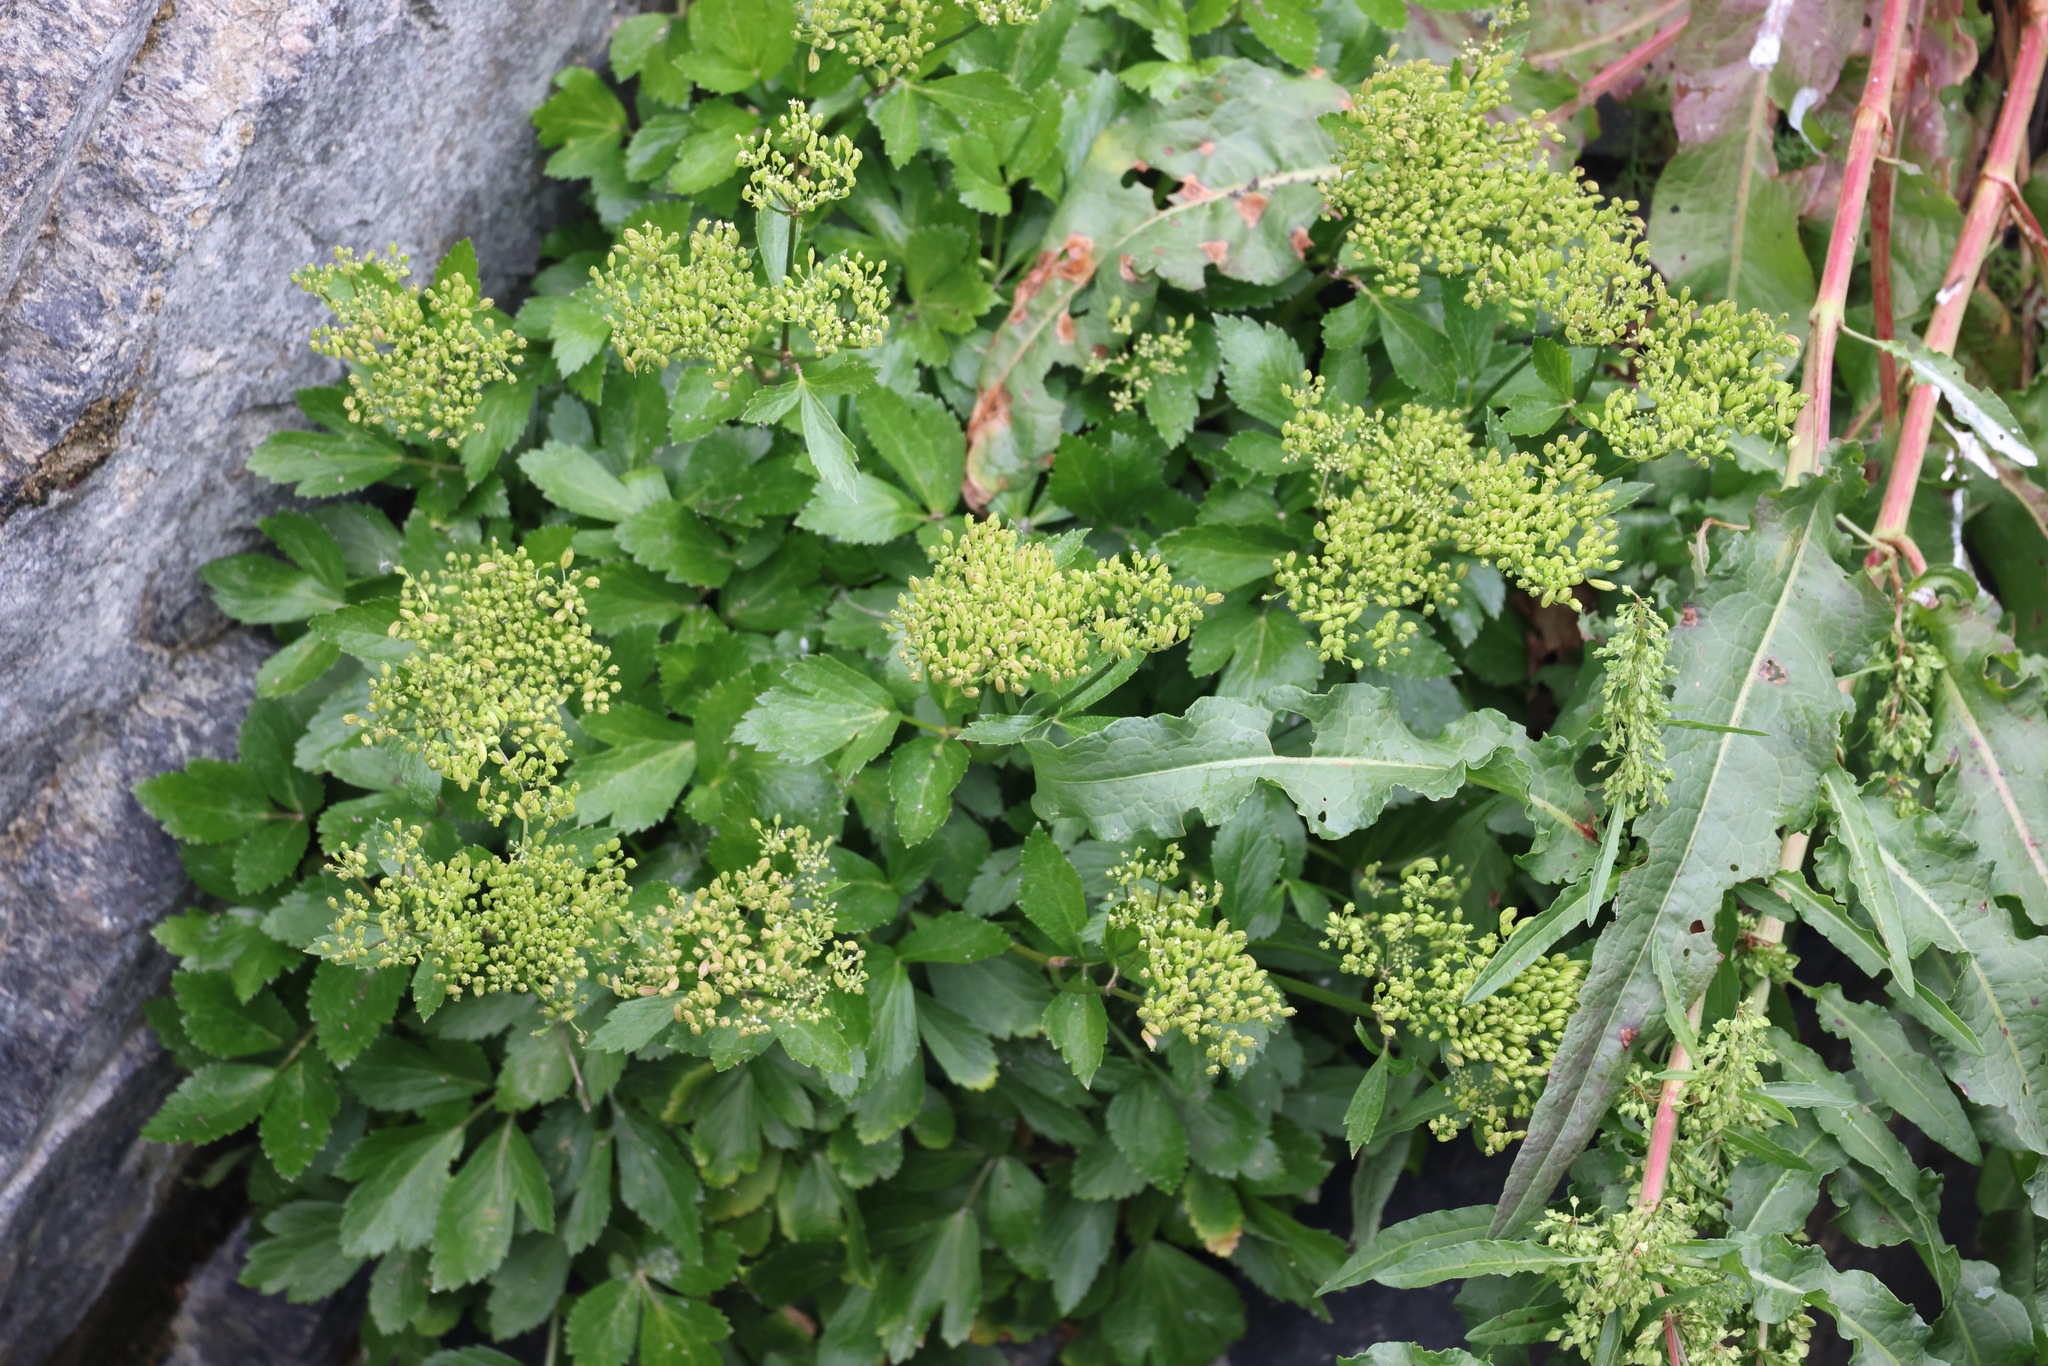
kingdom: Plantae
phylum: Tracheophyta
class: Magnoliopsida
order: Apiales
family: Apiaceae
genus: Ligusticum
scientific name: Ligusticum scothicum
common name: Beach lovage
